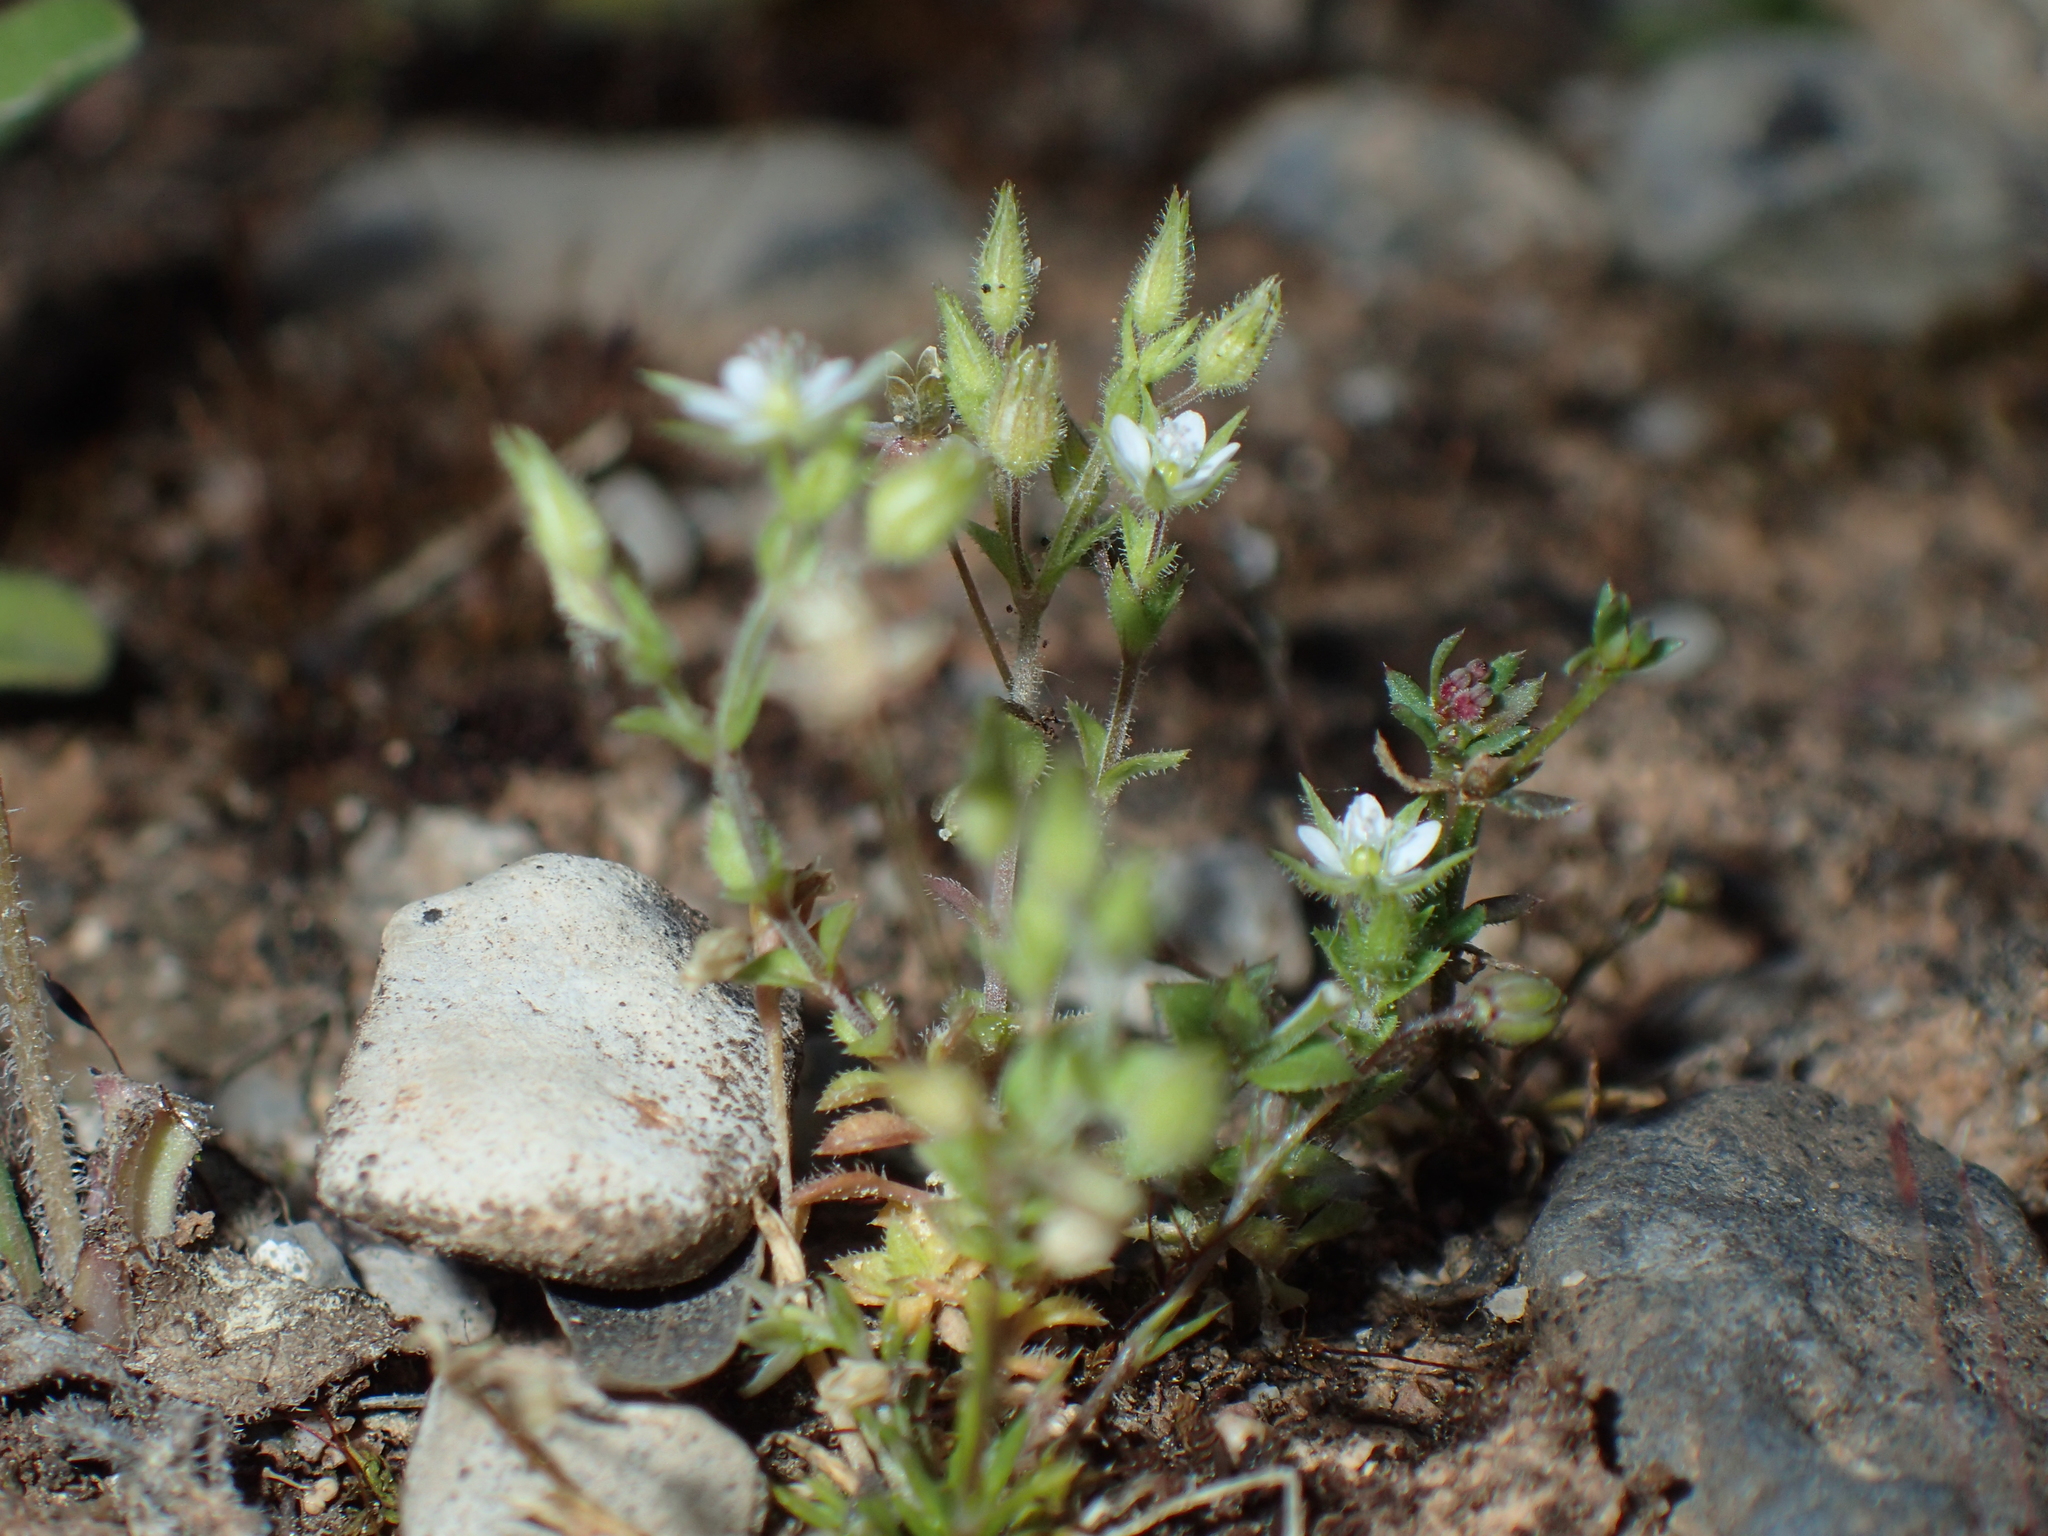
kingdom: Plantae
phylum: Tracheophyta
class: Magnoliopsida
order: Caryophyllales
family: Caryophyllaceae
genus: Arenaria
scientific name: Arenaria serpyllifolia
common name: Thyme-leaved sandwort
